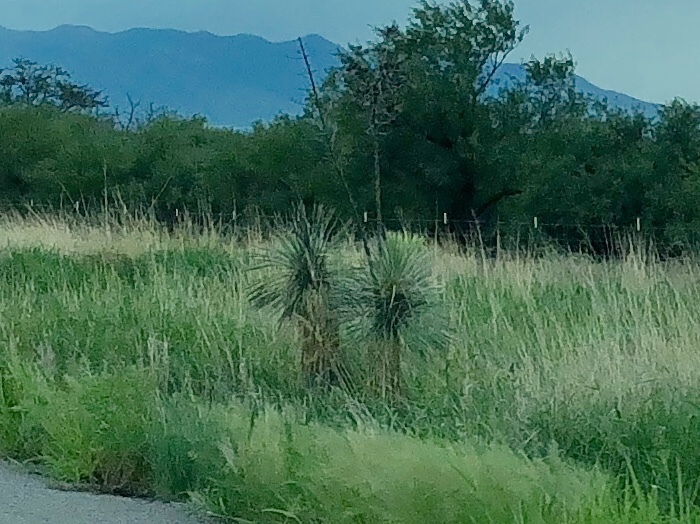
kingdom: Plantae
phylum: Tracheophyta
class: Liliopsida
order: Asparagales
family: Asparagaceae
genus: Yucca
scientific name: Yucca elata
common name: Palmella
